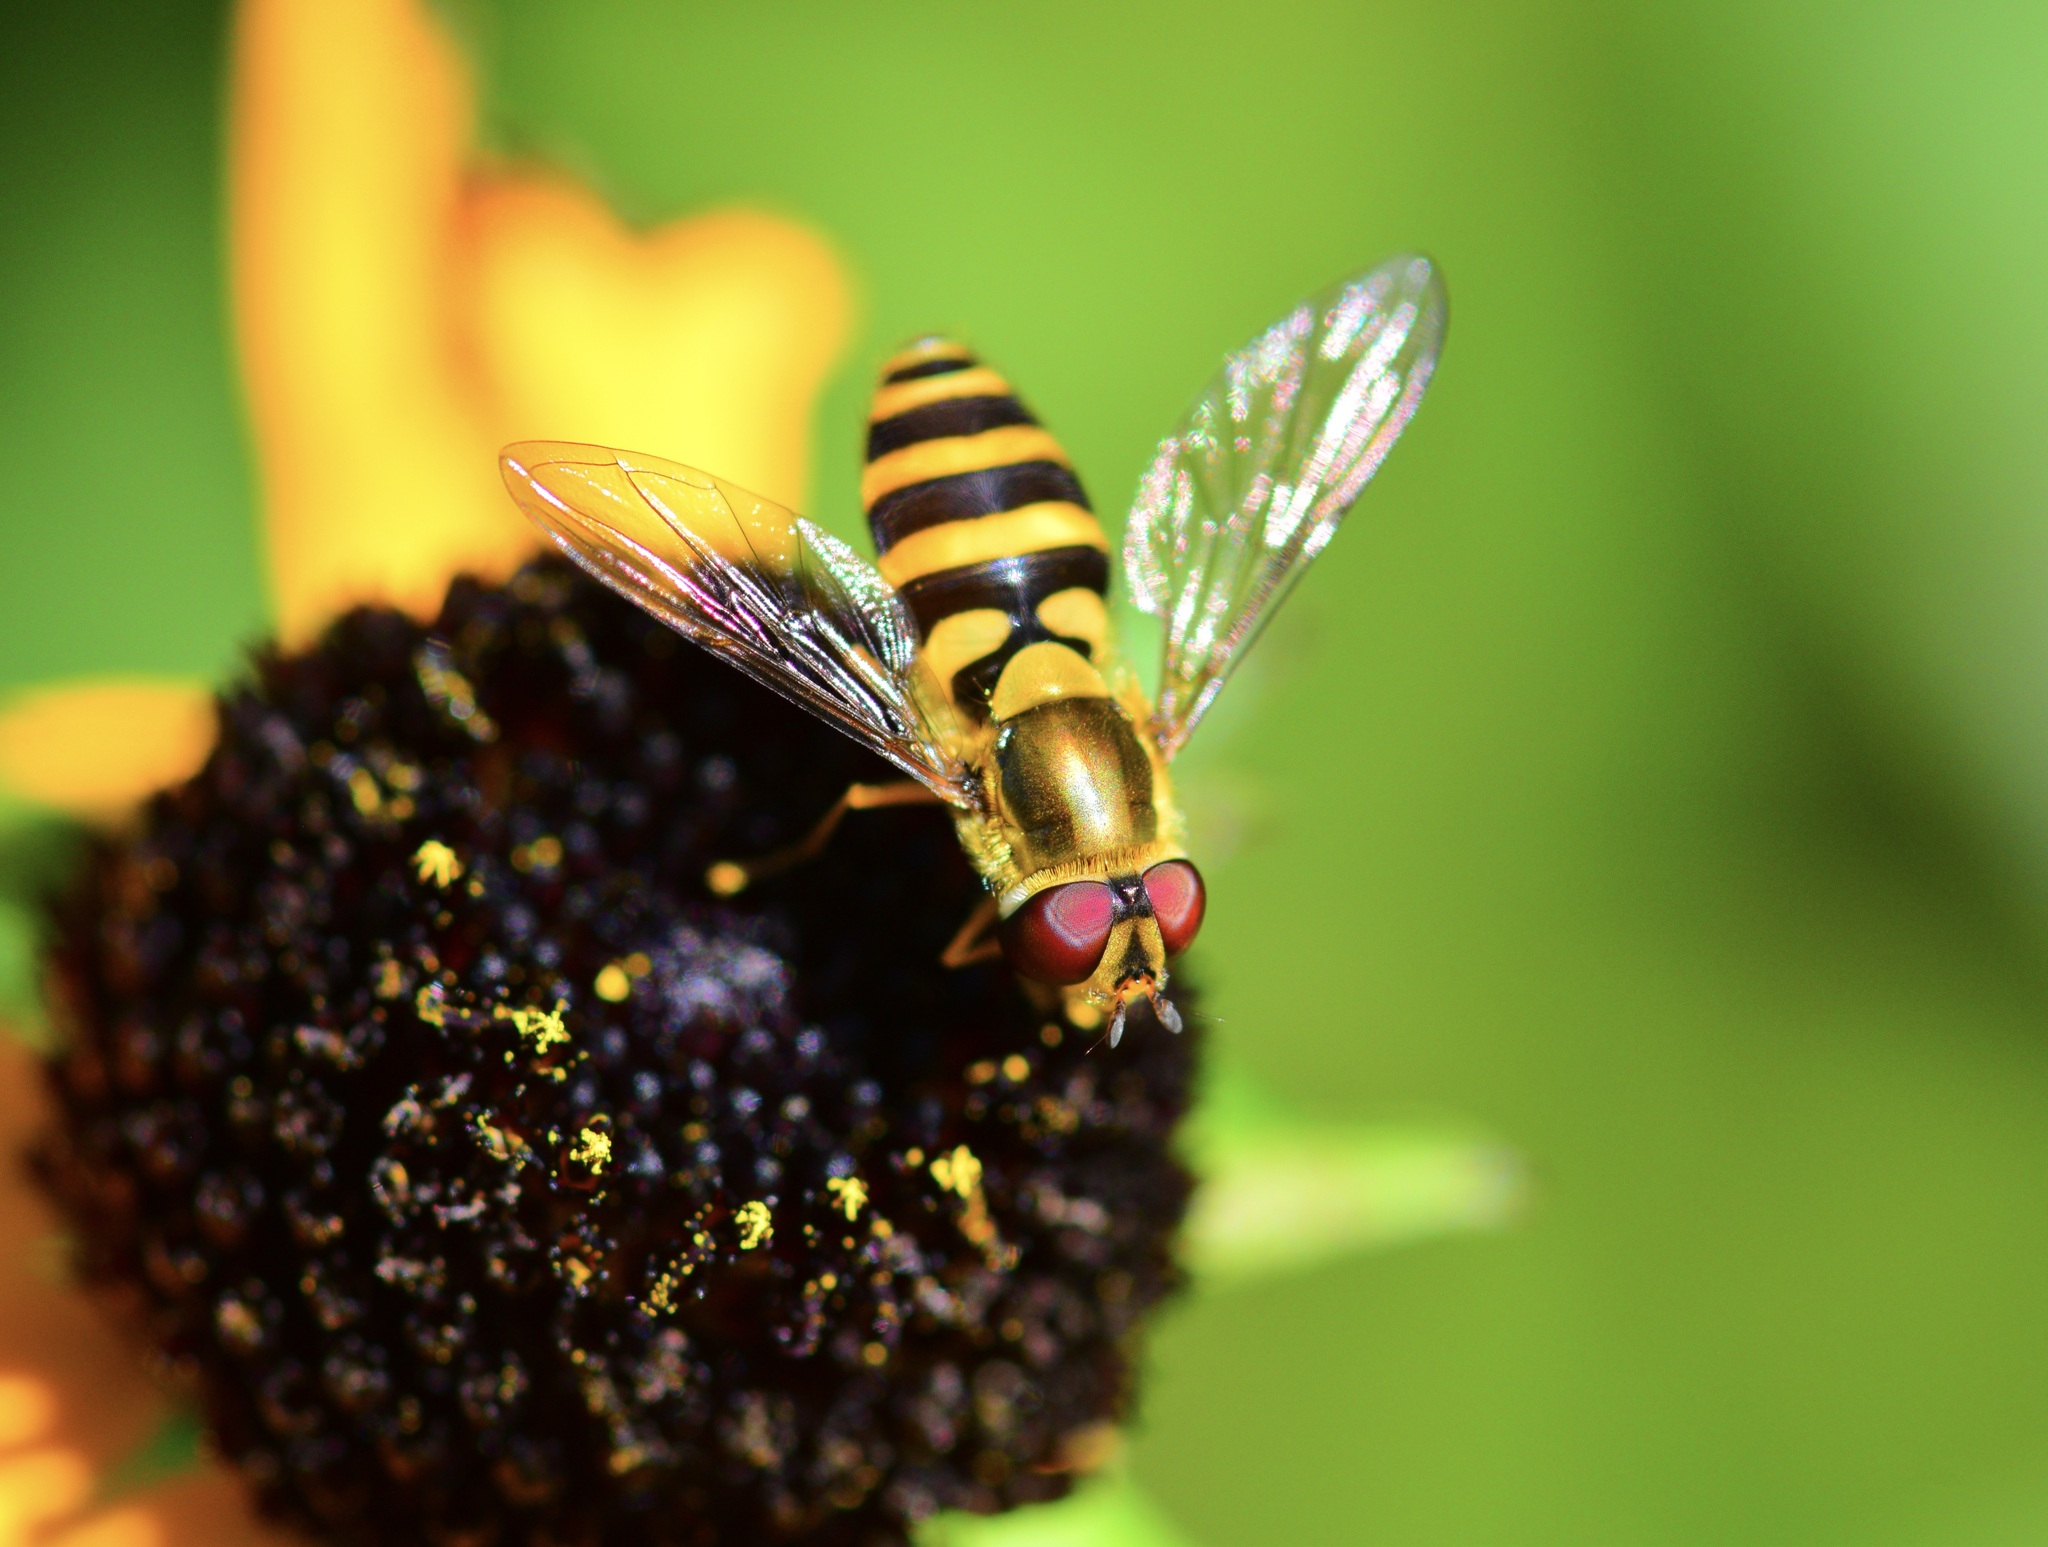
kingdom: Animalia
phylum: Arthropoda
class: Insecta
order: Diptera
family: Syrphidae
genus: Syrphus
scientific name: Syrphus
